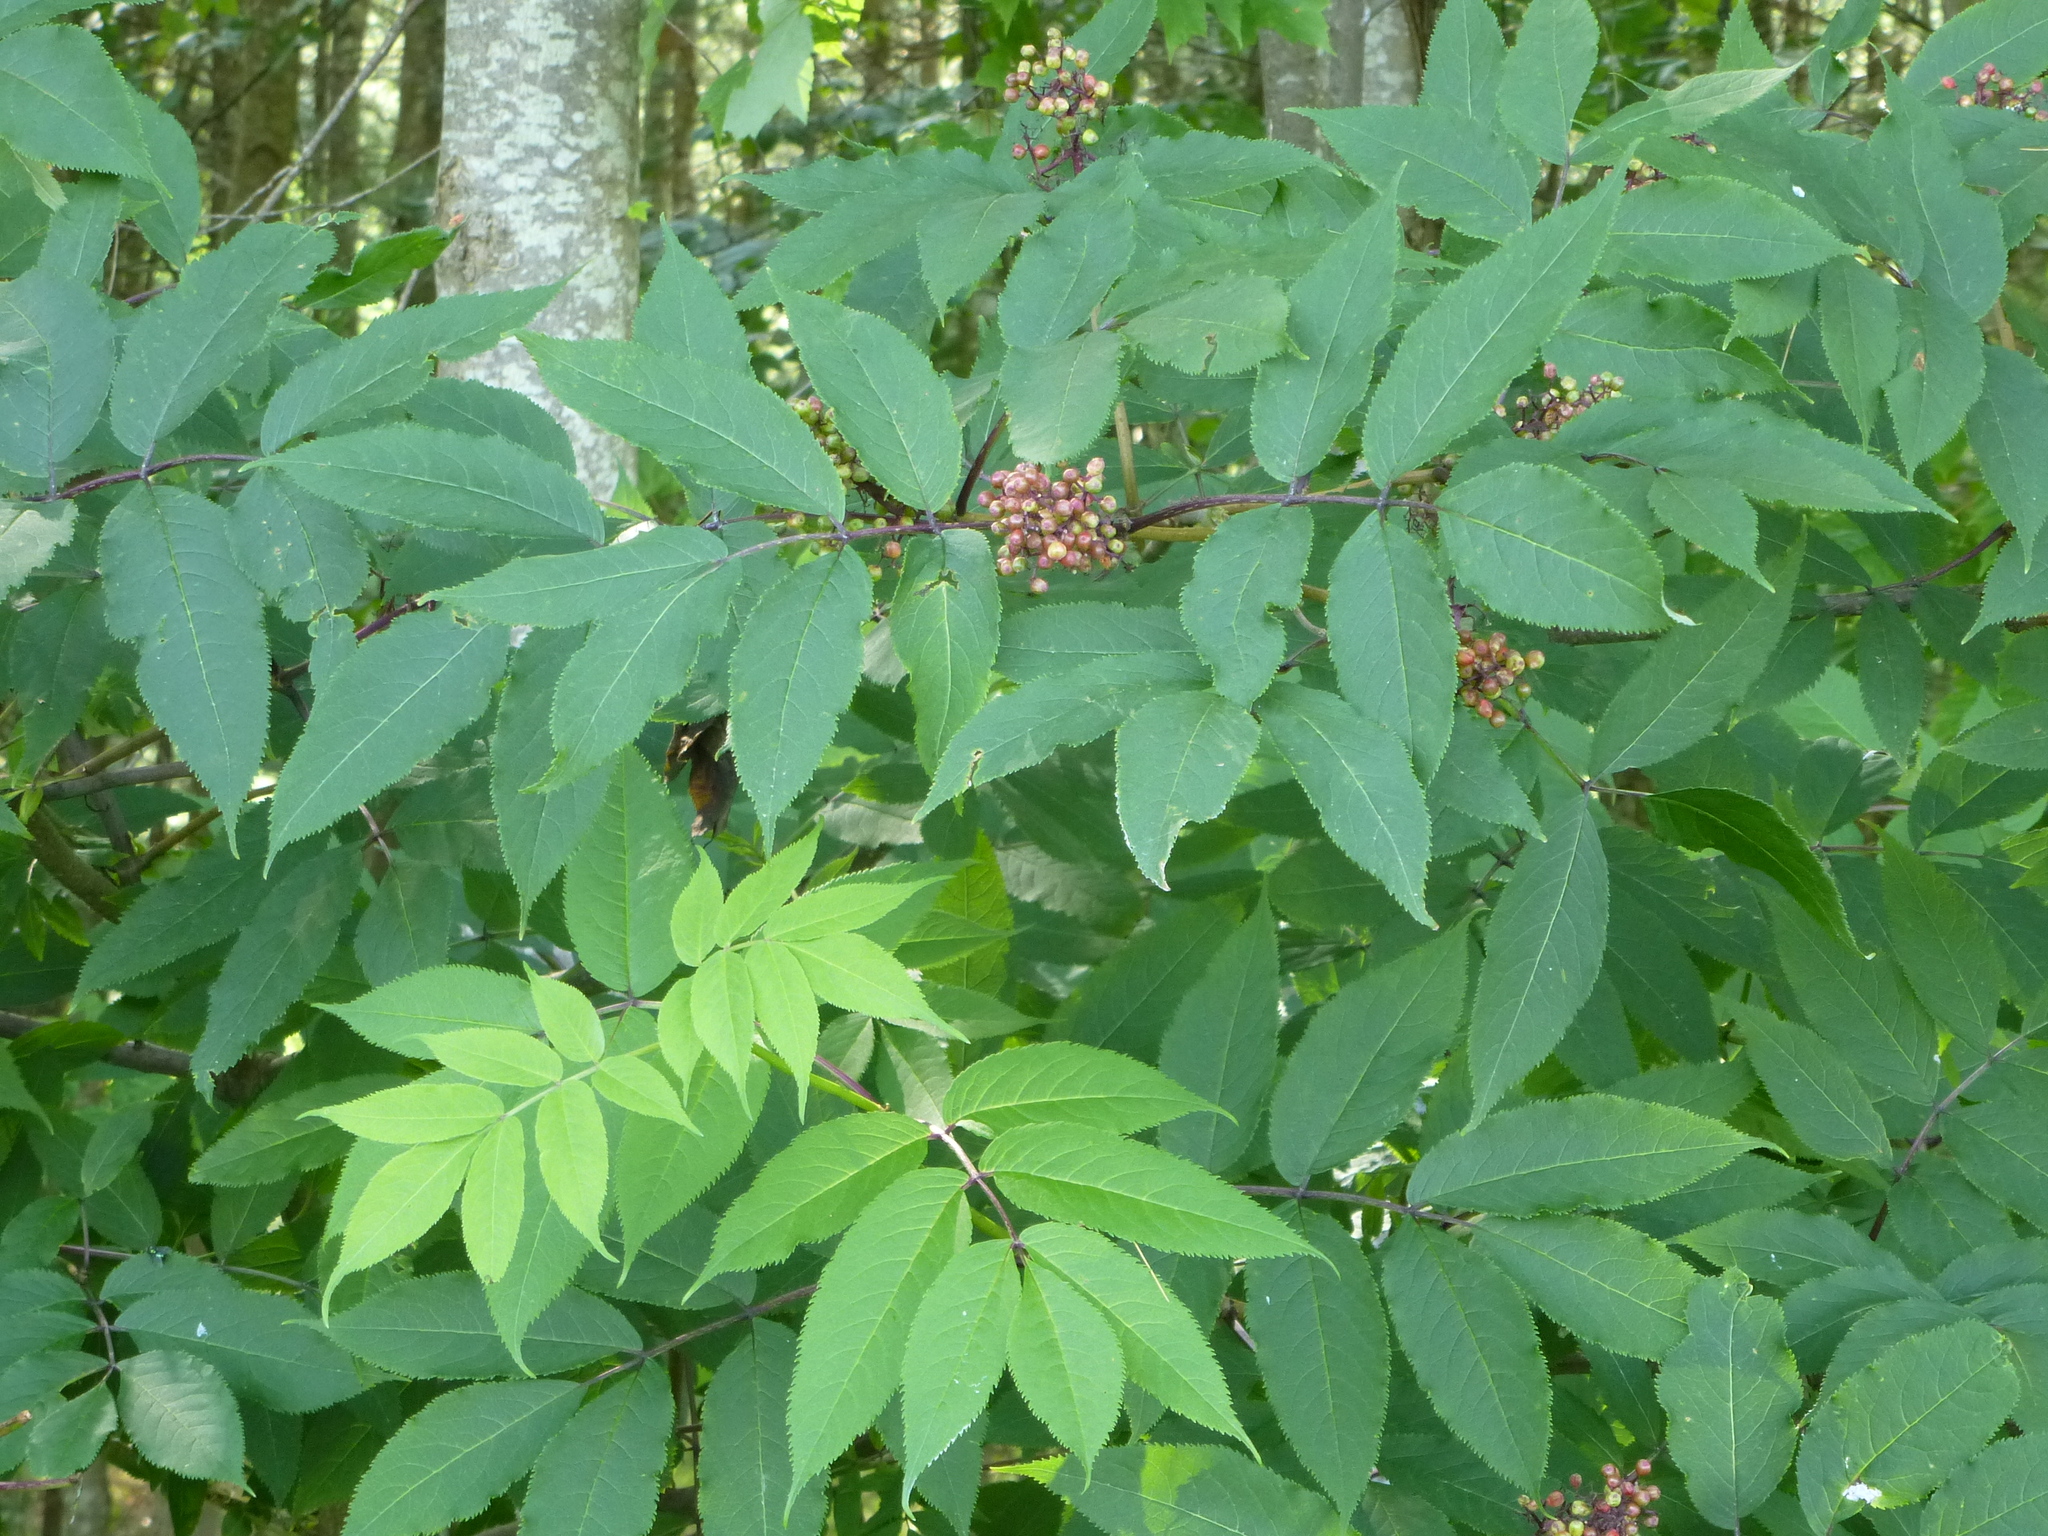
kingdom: Plantae
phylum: Tracheophyta
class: Magnoliopsida
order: Dipsacales
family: Viburnaceae
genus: Sambucus
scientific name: Sambucus racemosa
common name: Red-berried elder
